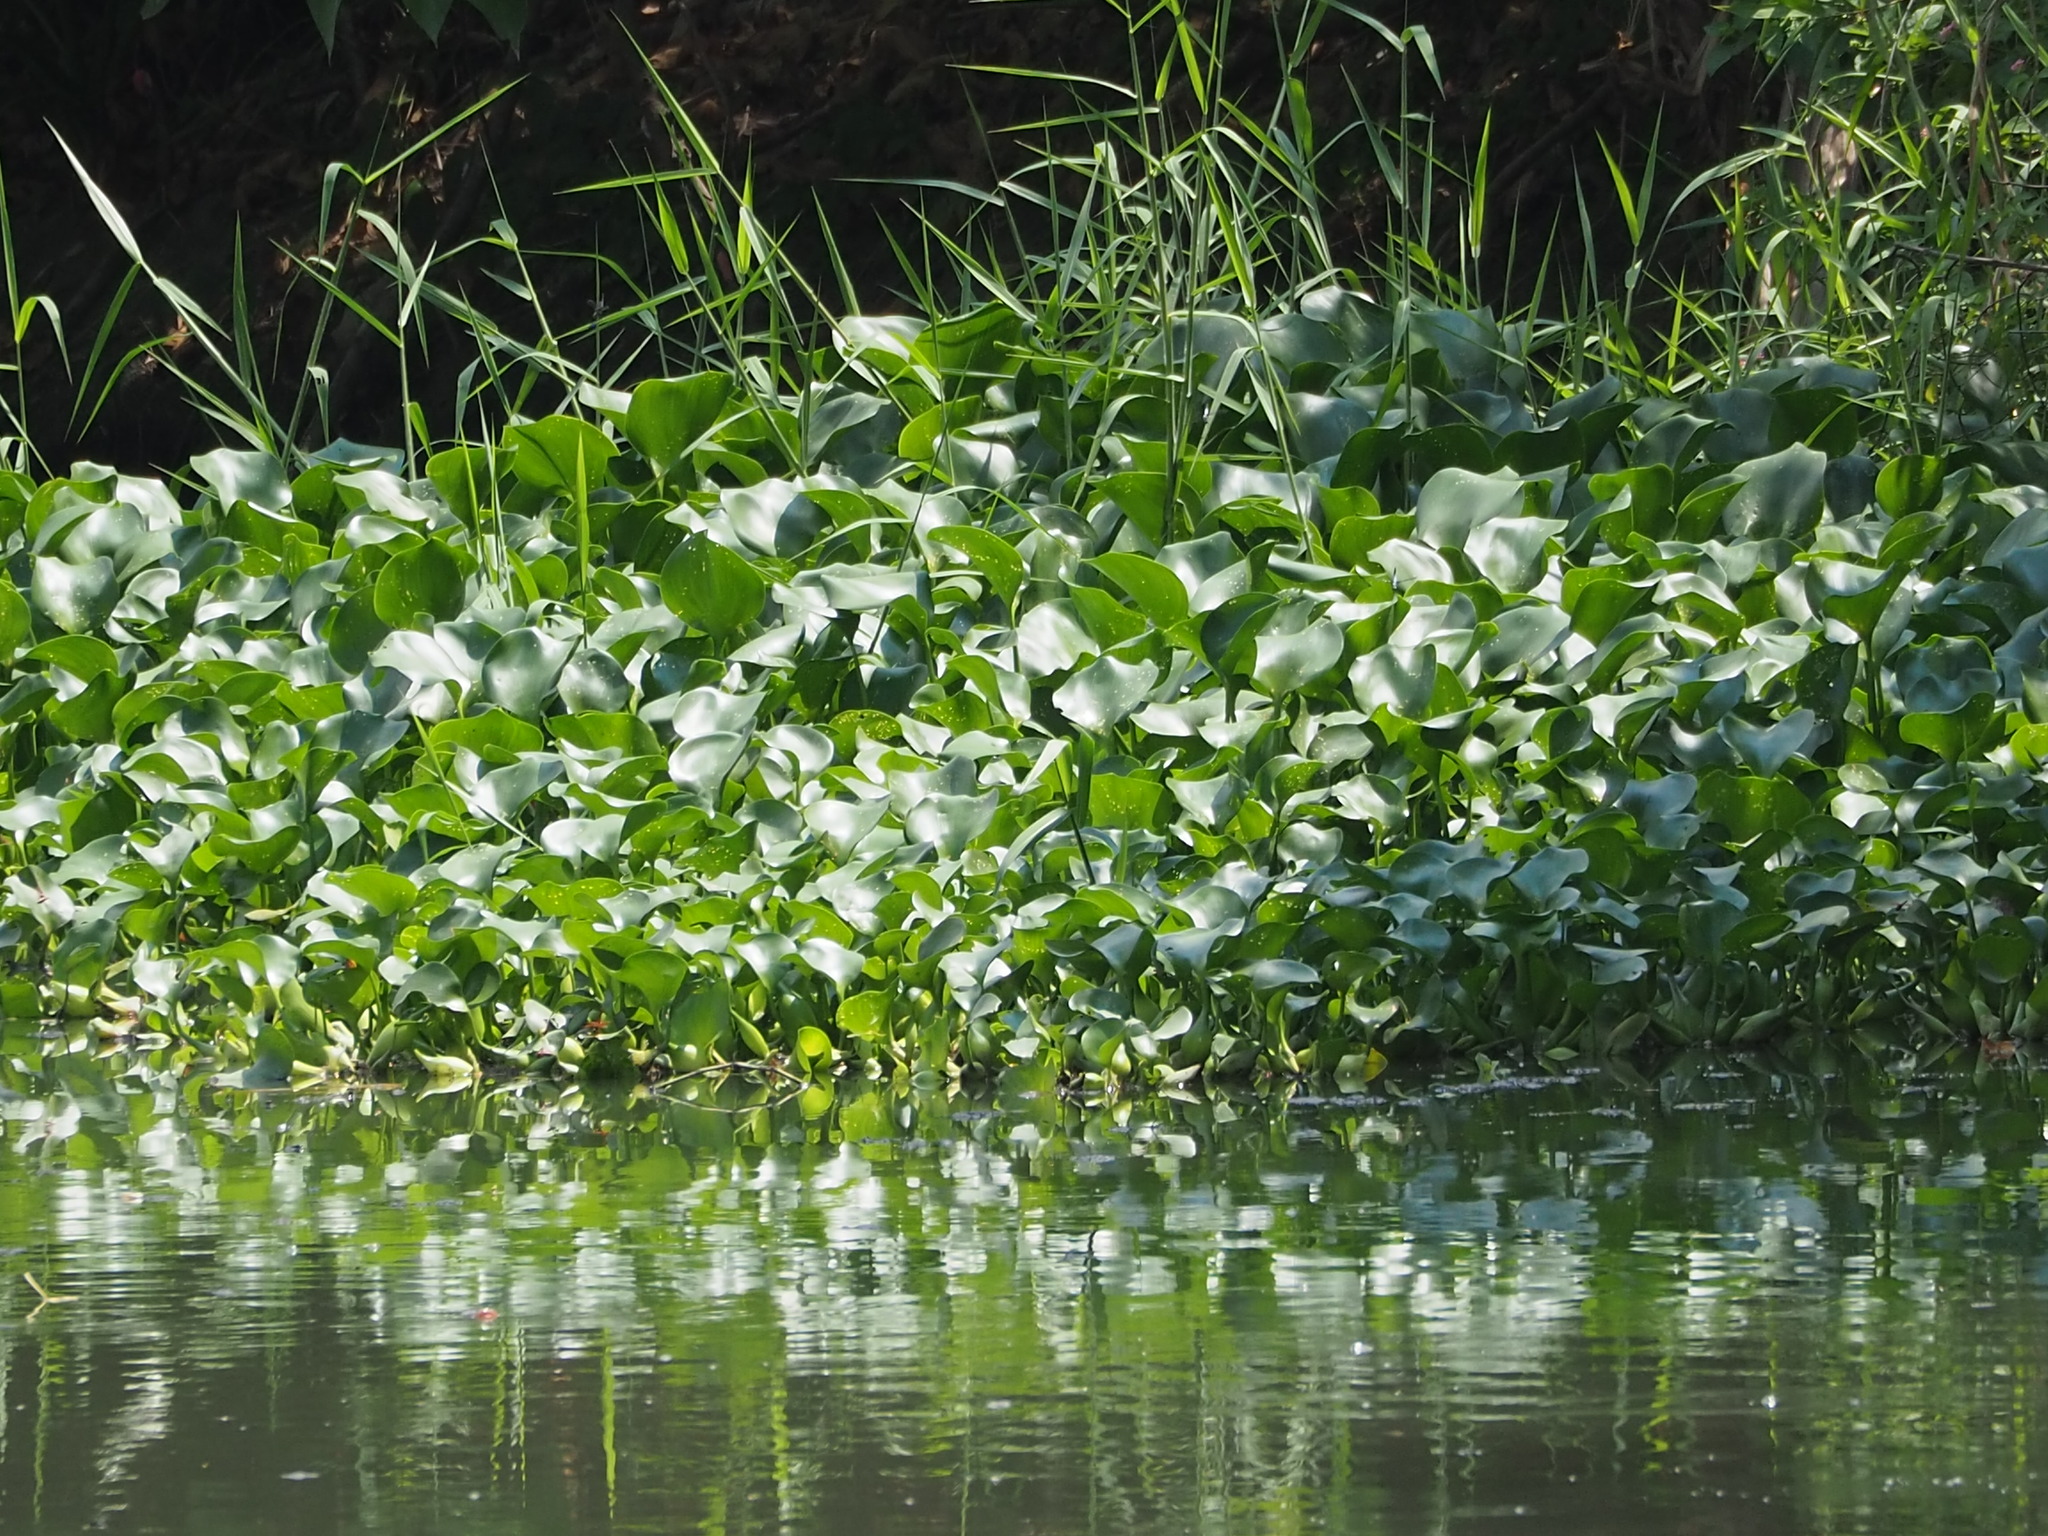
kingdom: Plantae
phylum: Tracheophyta
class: Liliopsida
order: Commelinales
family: Pontederiaceae
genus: Pontederia
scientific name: Pontederia crassipes
